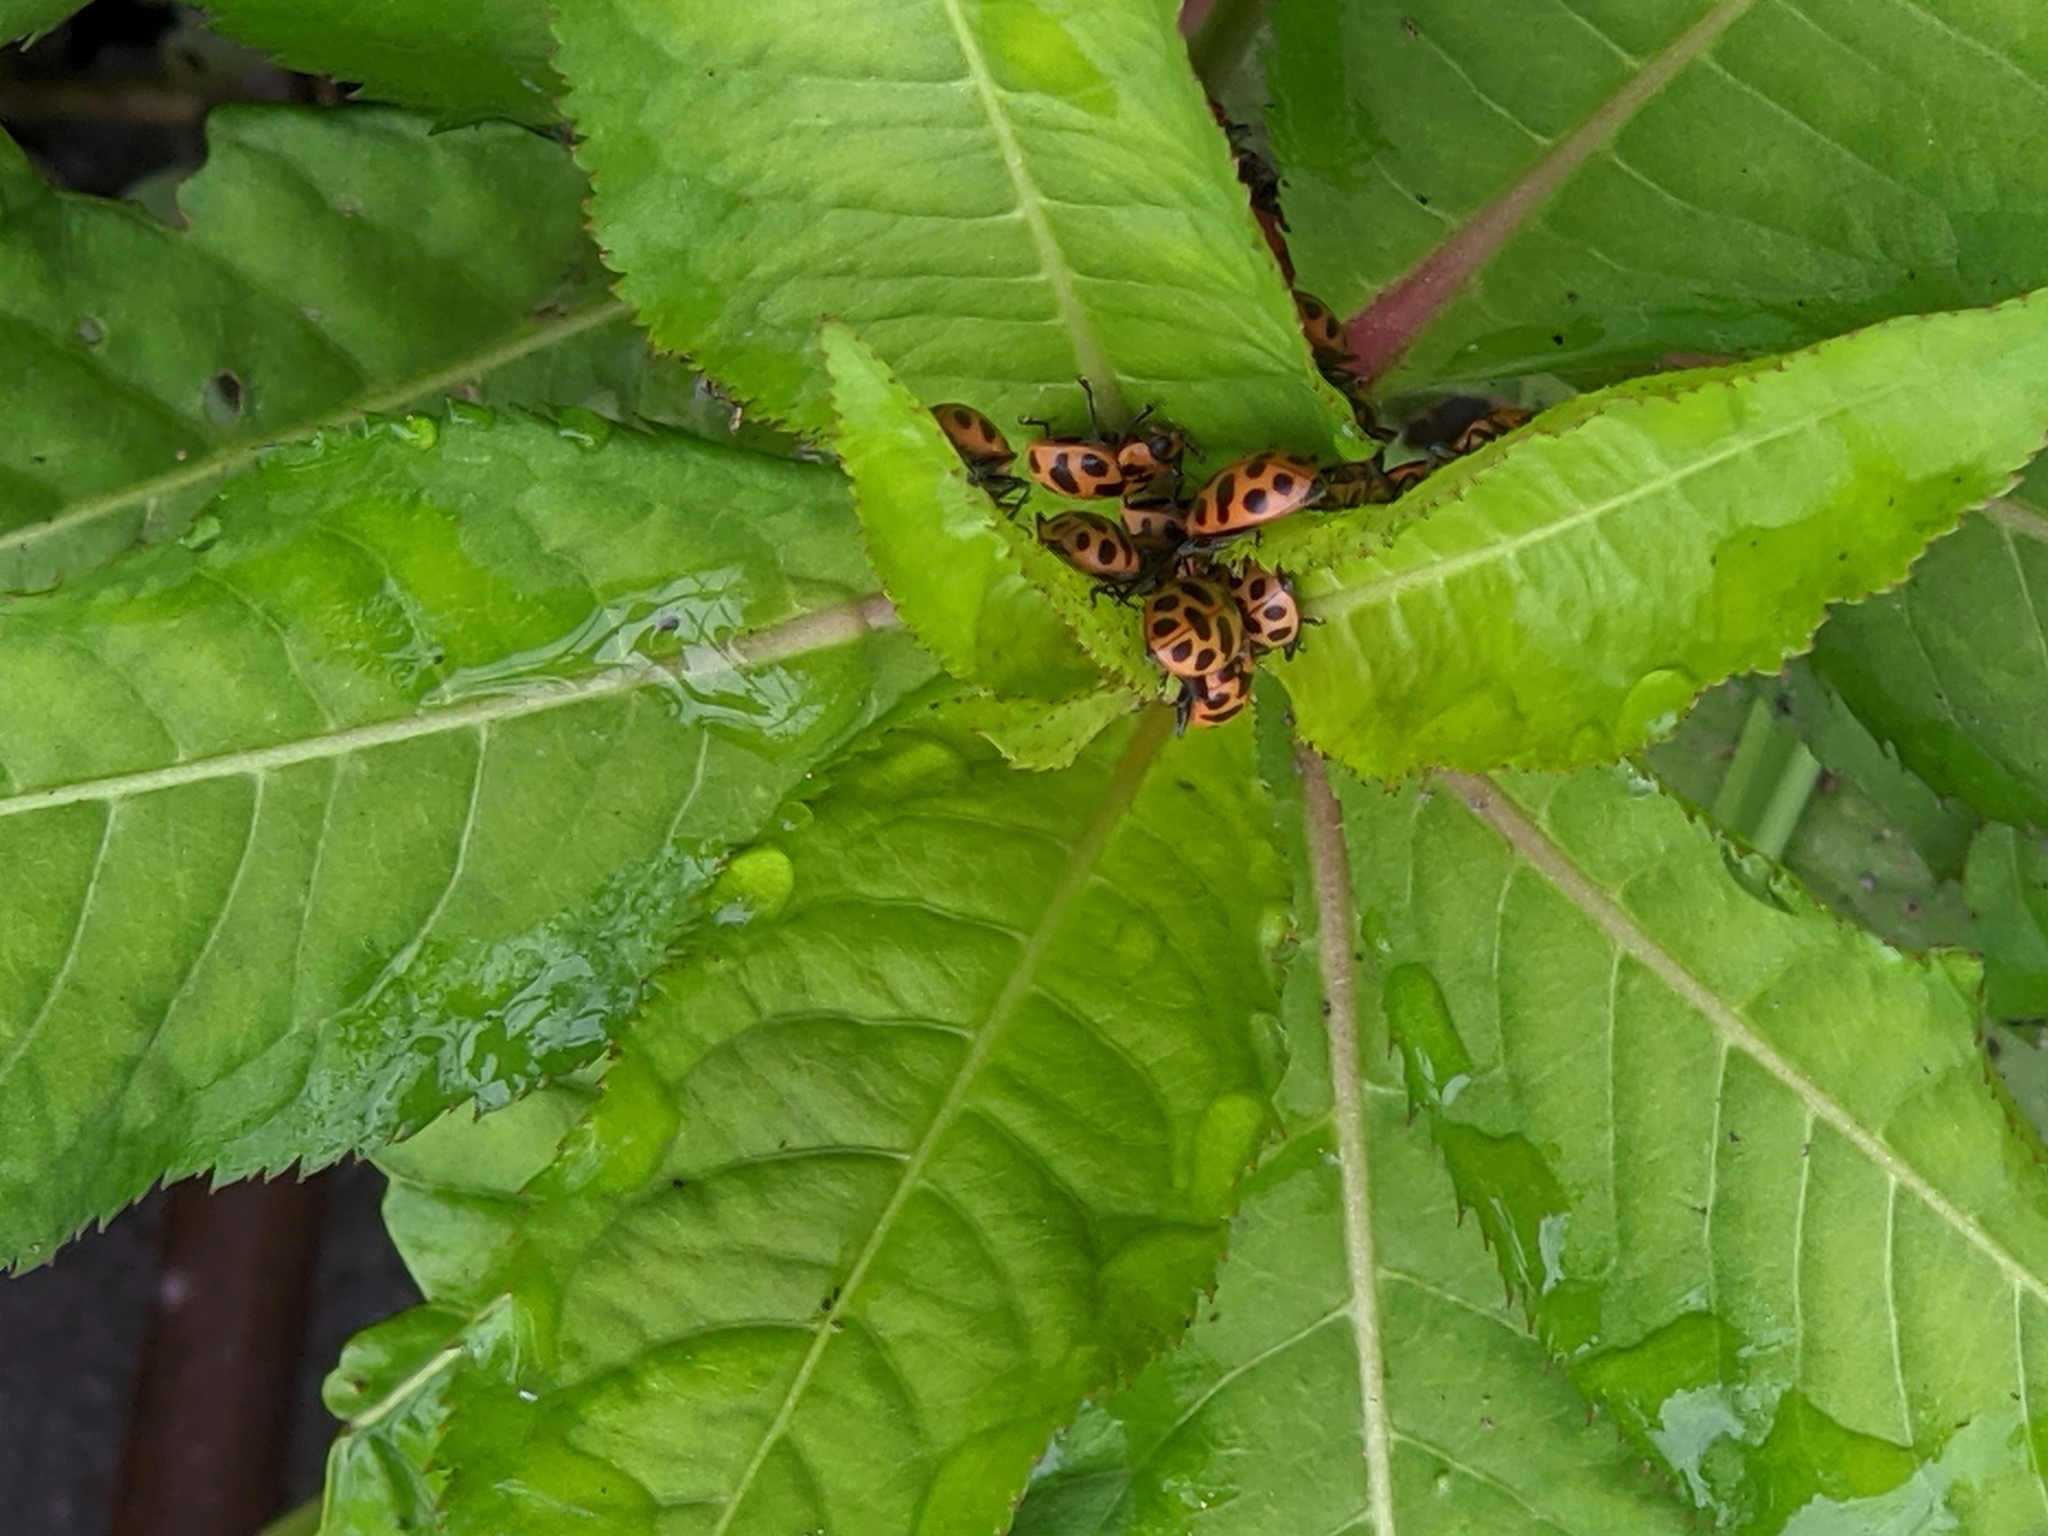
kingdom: Animalia
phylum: Arthropoda
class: Insecta
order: Coleoptera
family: Coccinellidae
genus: Coleomegilla
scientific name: Coleomegilla maculata
